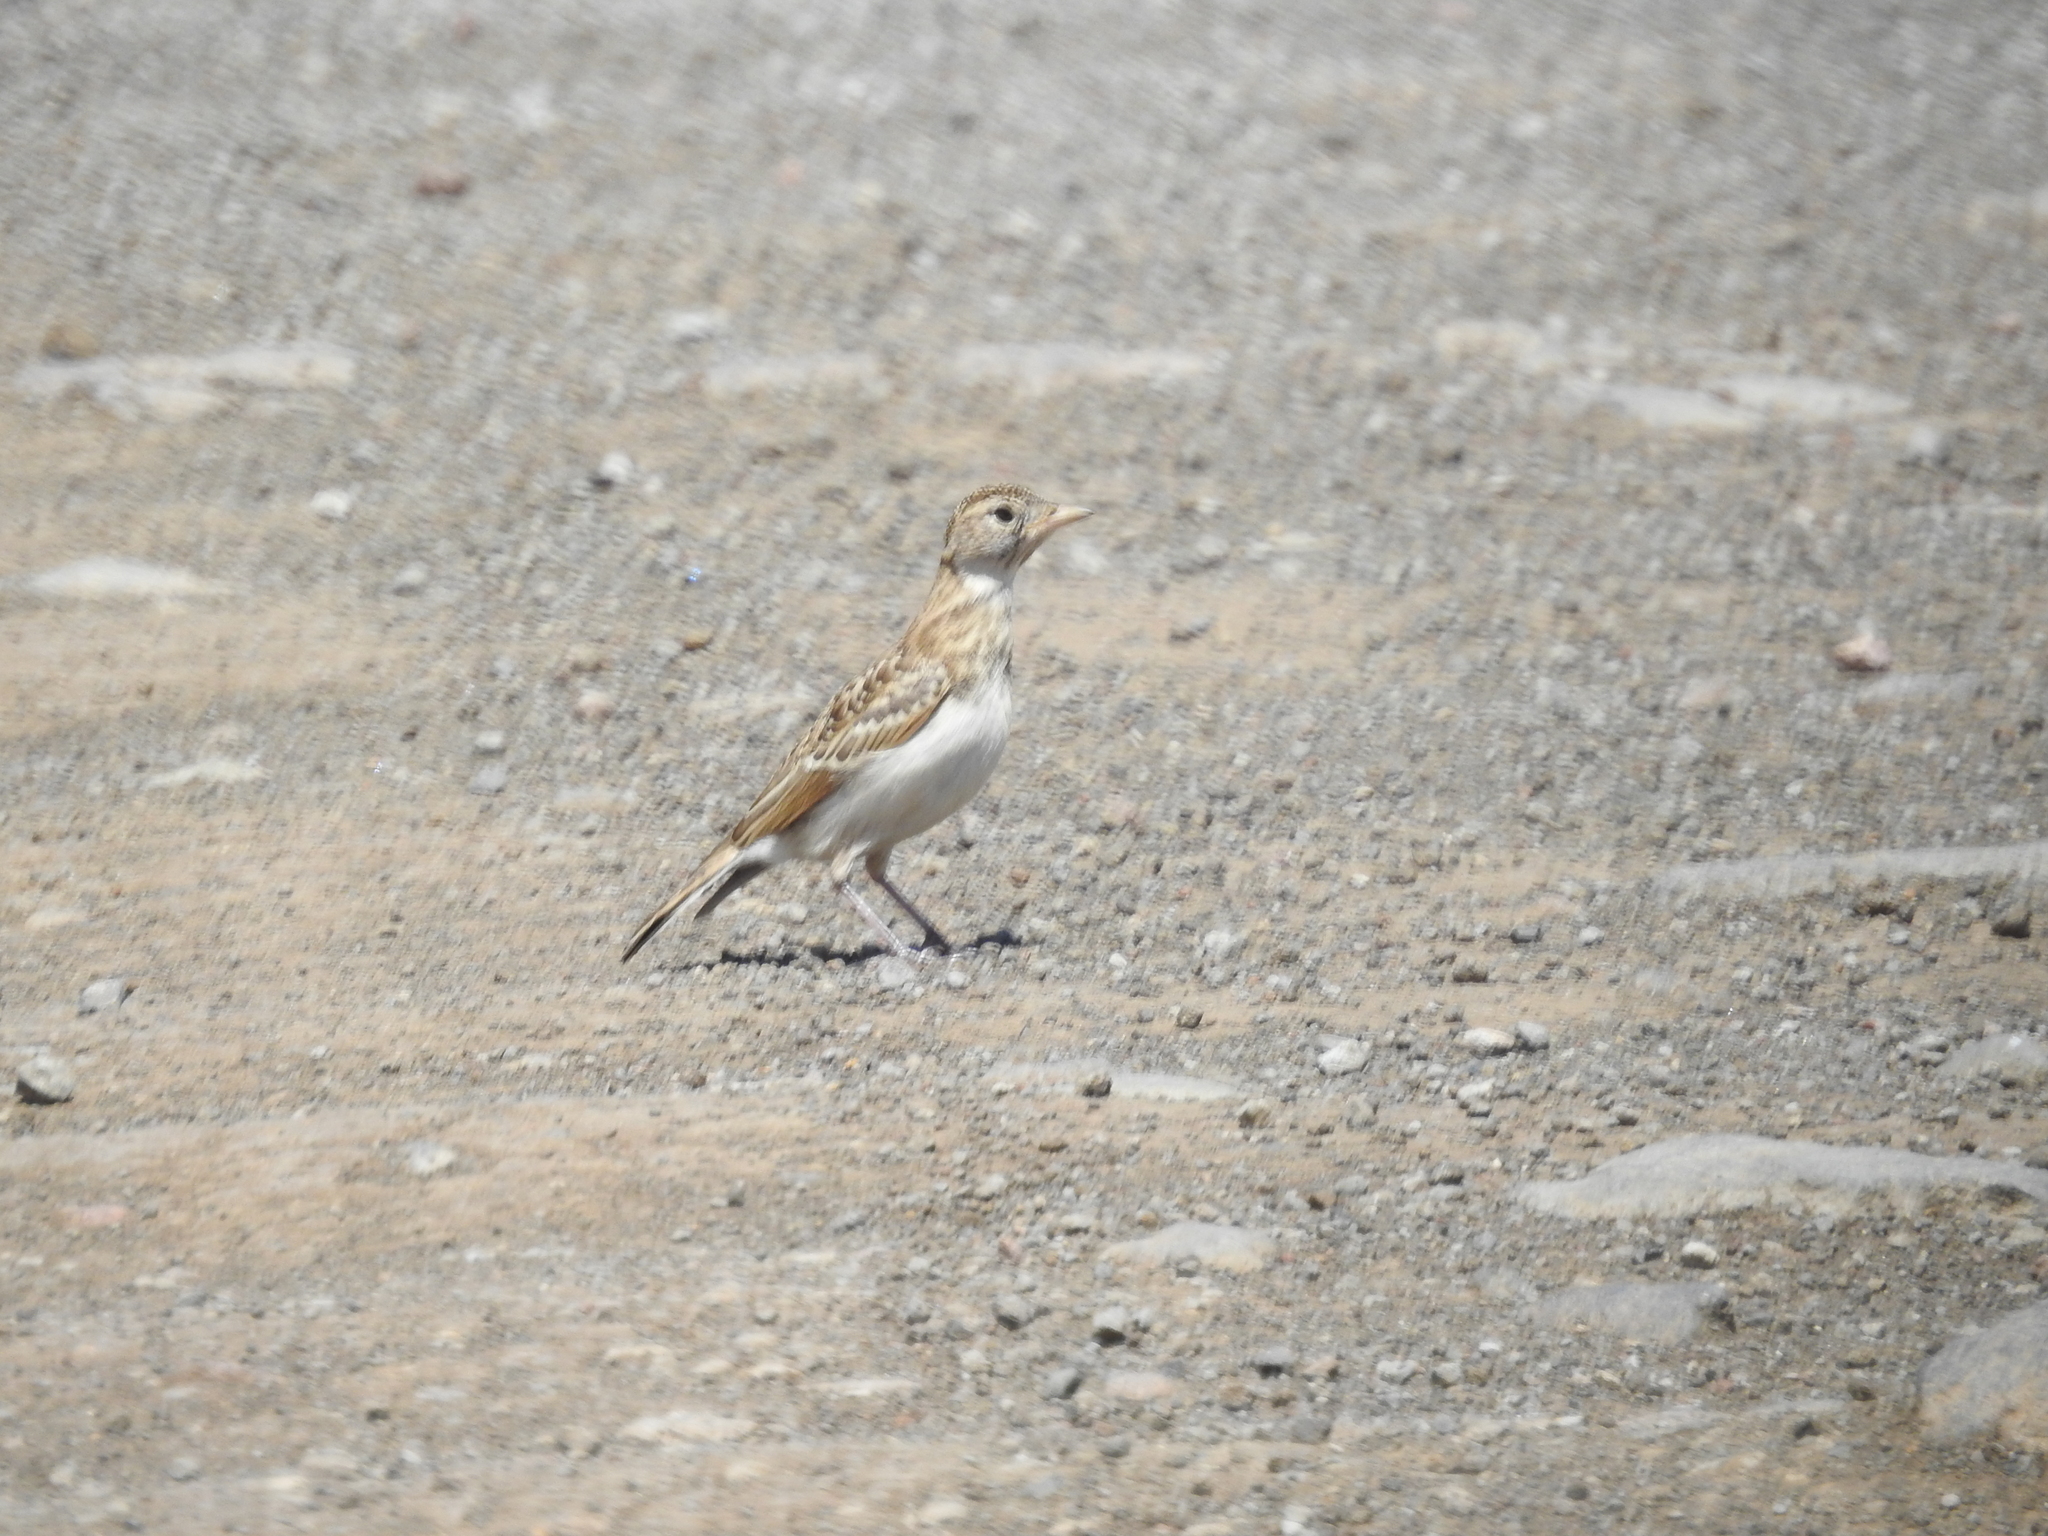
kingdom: Animalia
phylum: Chordata
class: Aves
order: Passeriformes
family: Alaudidae
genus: Eremophila
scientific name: Eremophila alpestris
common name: Horned lark
